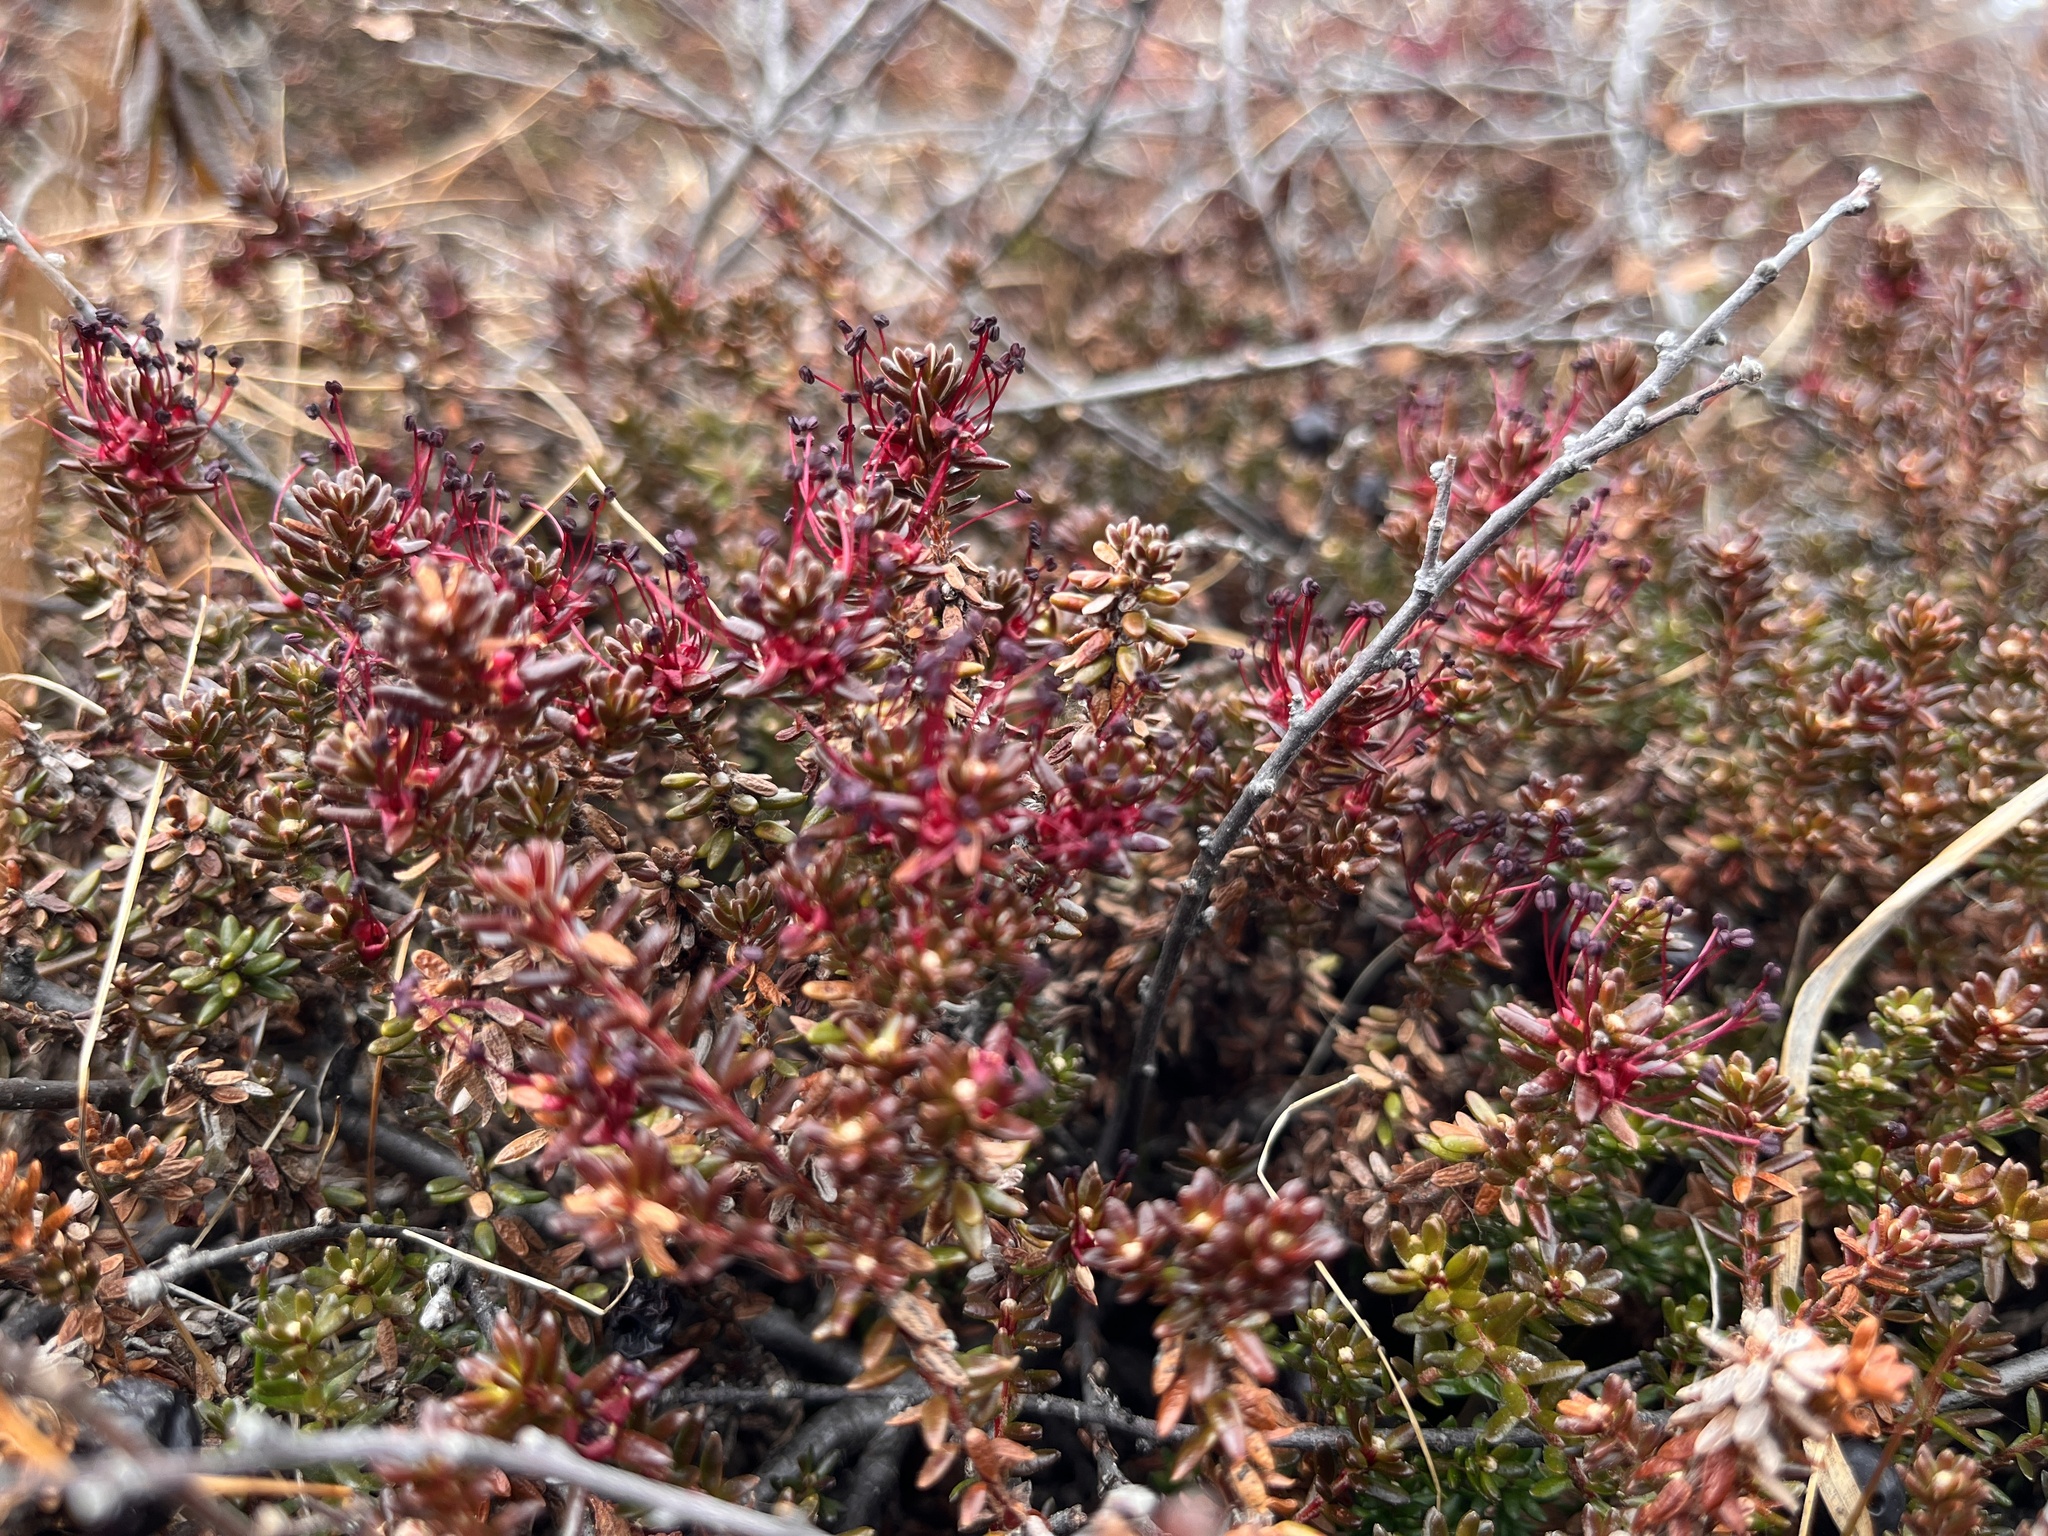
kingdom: Plantae
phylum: Tracheophyta
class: Magnoliopsida
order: Ericales
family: Ericaceae
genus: Empetrum
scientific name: Empetrum hermaphroditum
